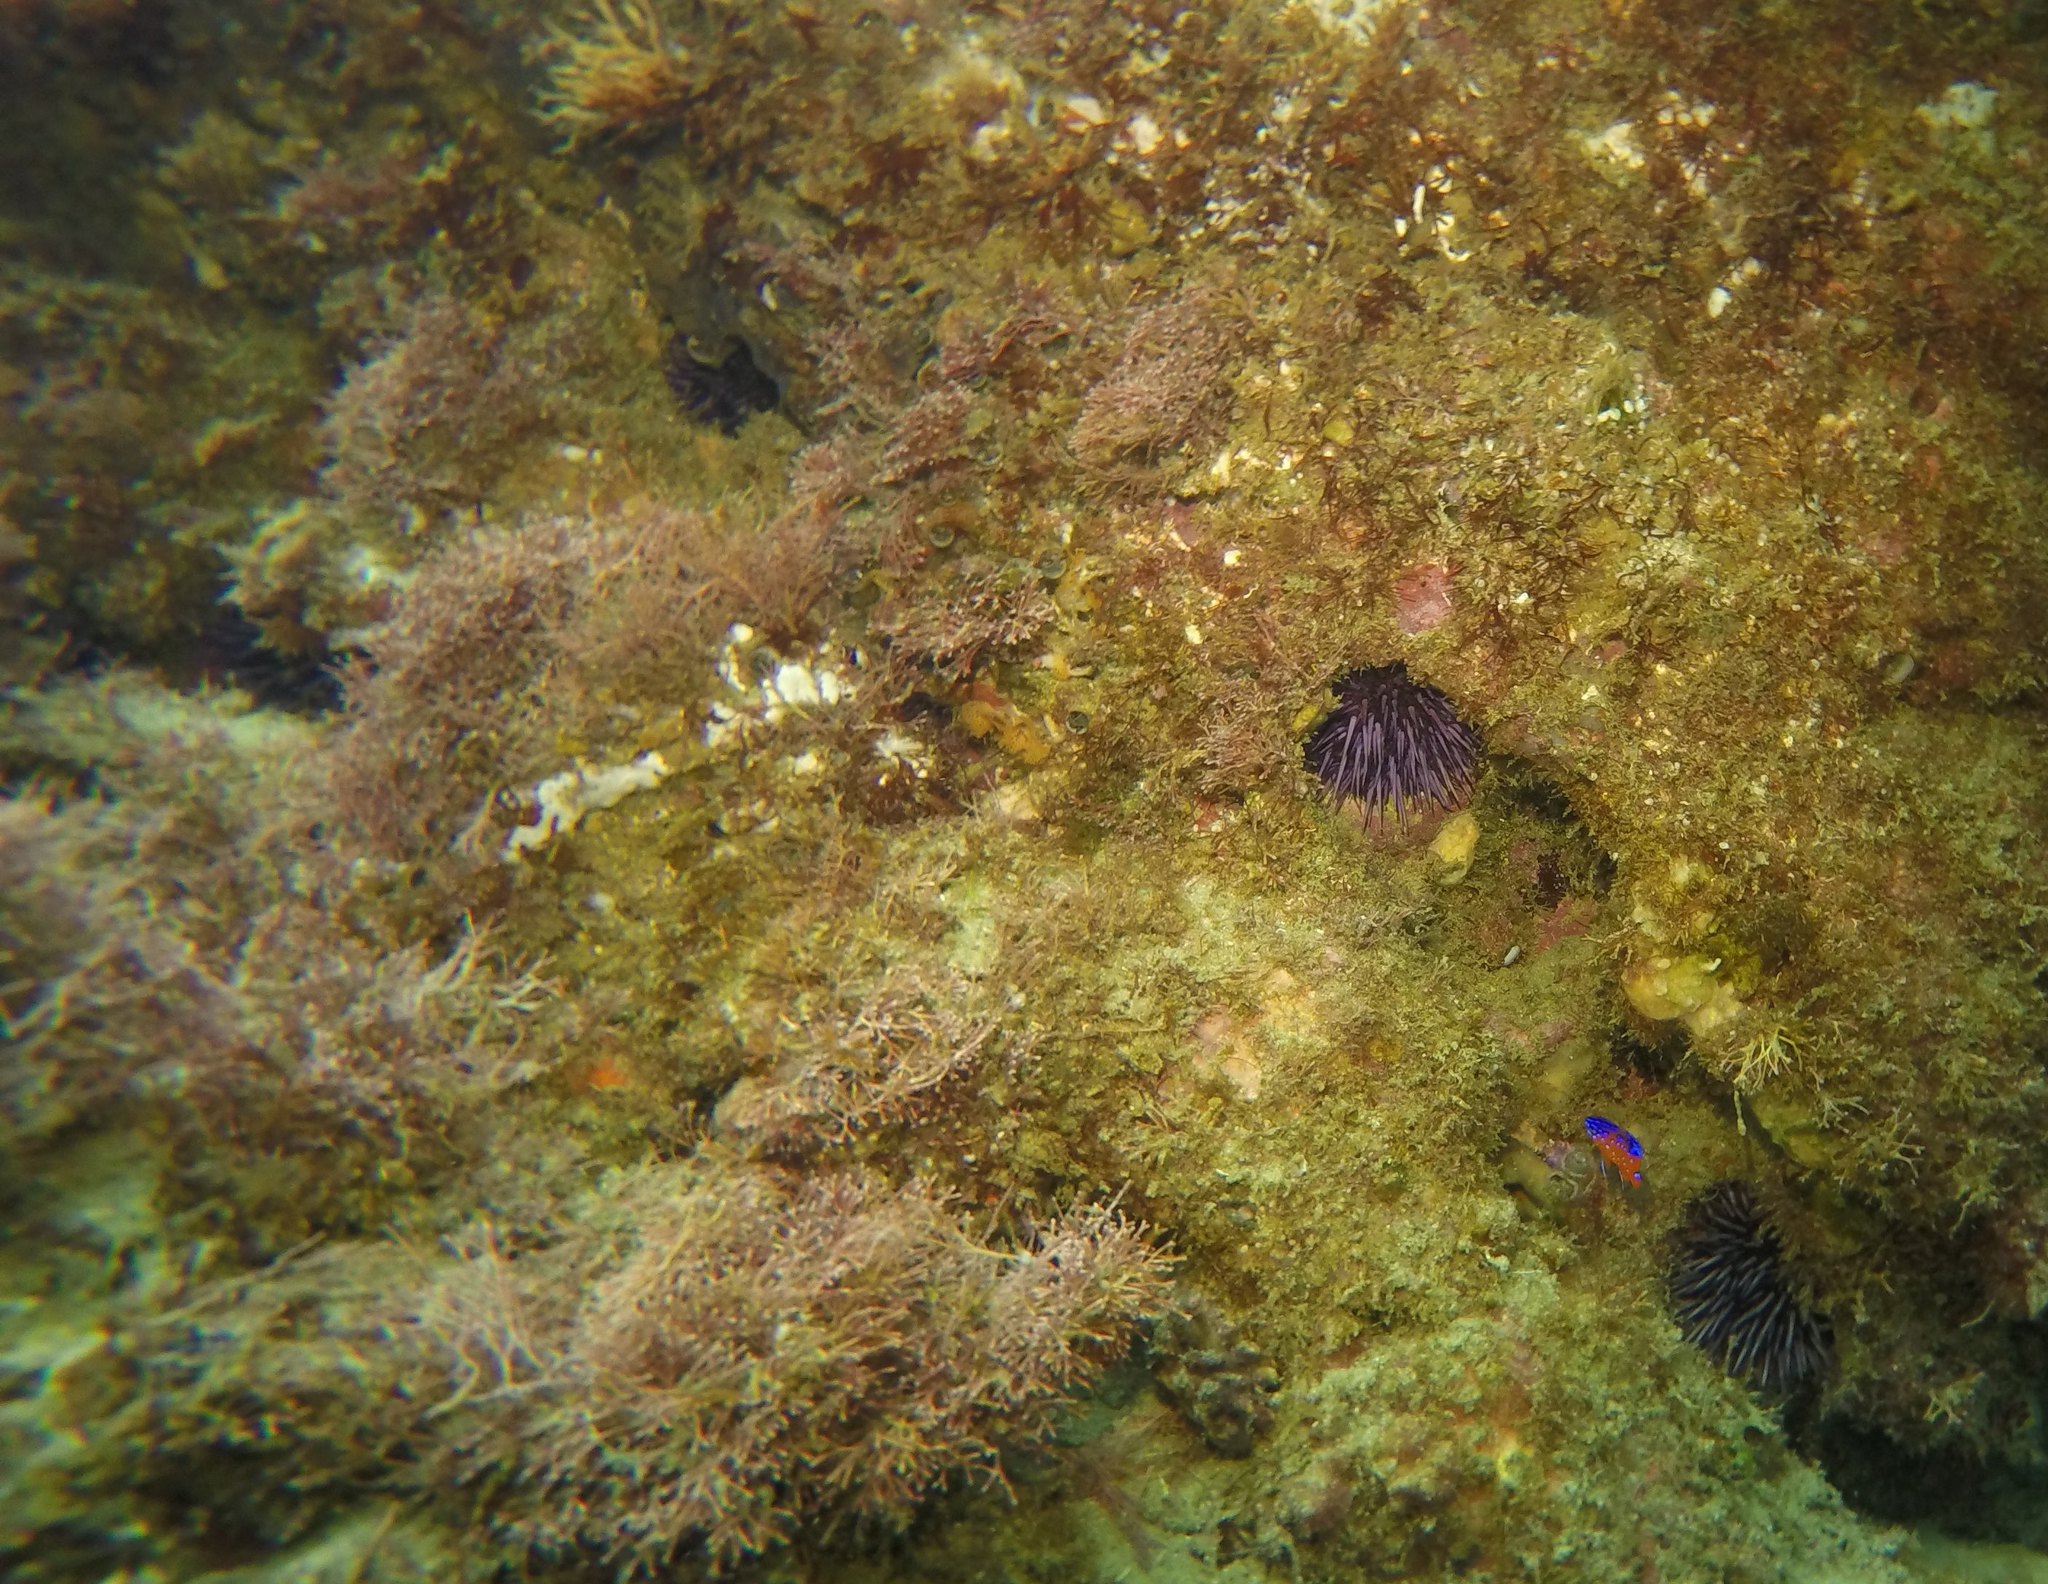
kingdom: Animalia
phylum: Echinodermata
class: Echinoidea
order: Camarodonta
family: Strongylocentrotidae
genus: Strongylocentrotus
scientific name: Strongylocentrotus purpuratus
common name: Purple sea urchin
